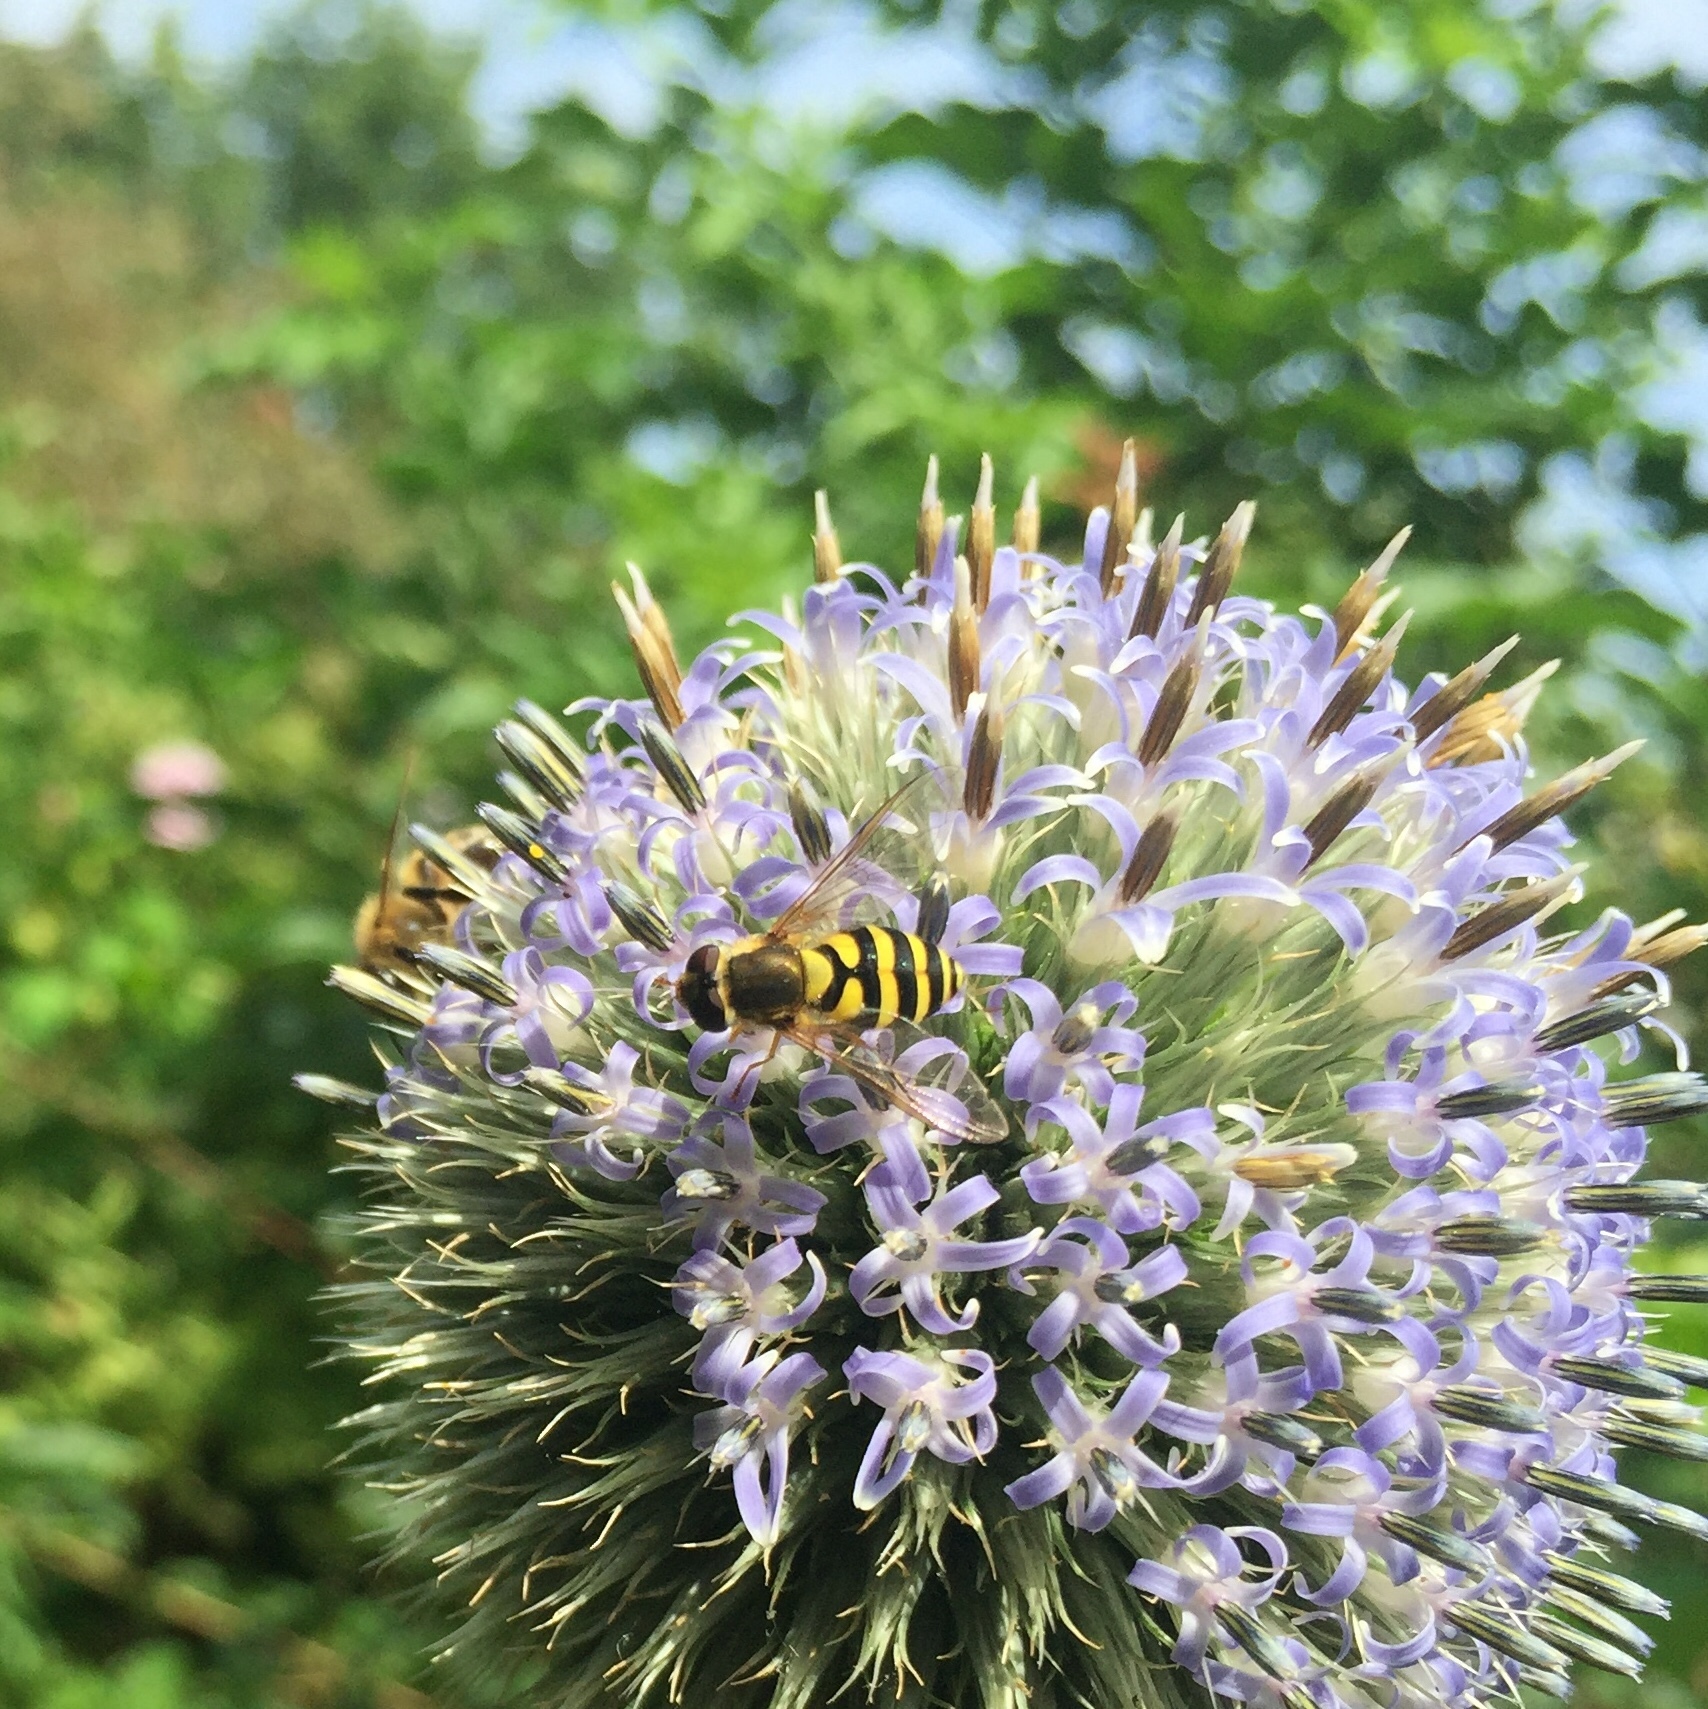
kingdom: Animalia
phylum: Arthropoda
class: Insecta
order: Diptera
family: Syrphidae
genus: Syrphus
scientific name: Syrphus
